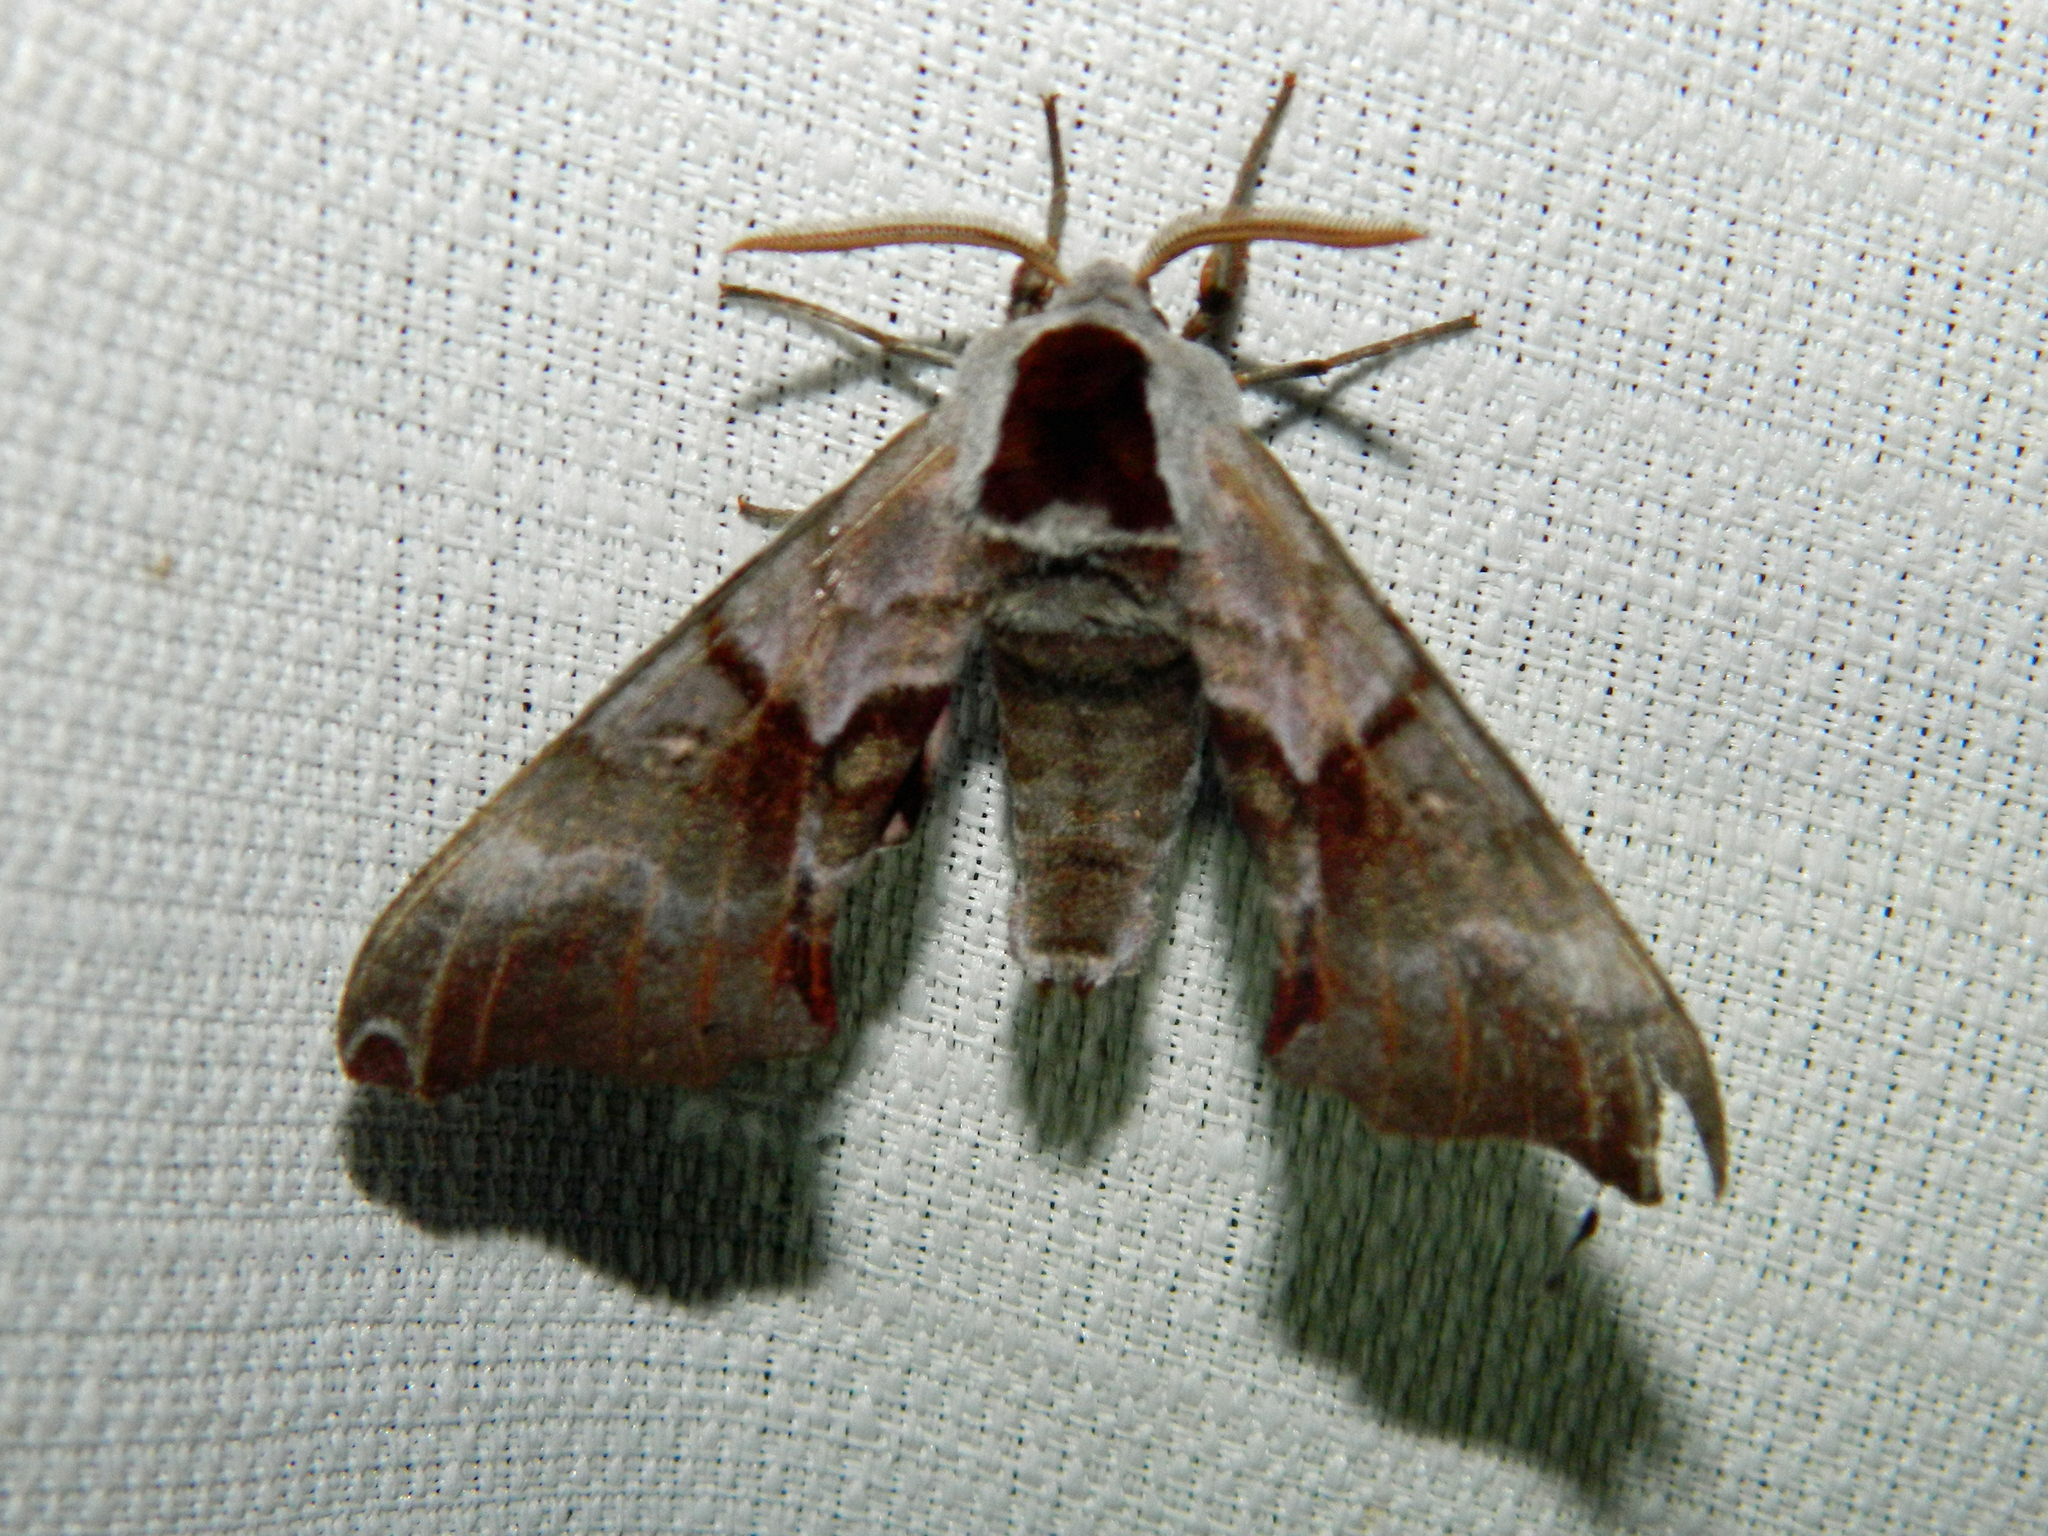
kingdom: Animalia
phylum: Arthropoda
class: Insecta
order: Lepidoptera
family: Sphingidae
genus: Smerinthus
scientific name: Smerinthus jamaicensis
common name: Twin spotted sphinx
